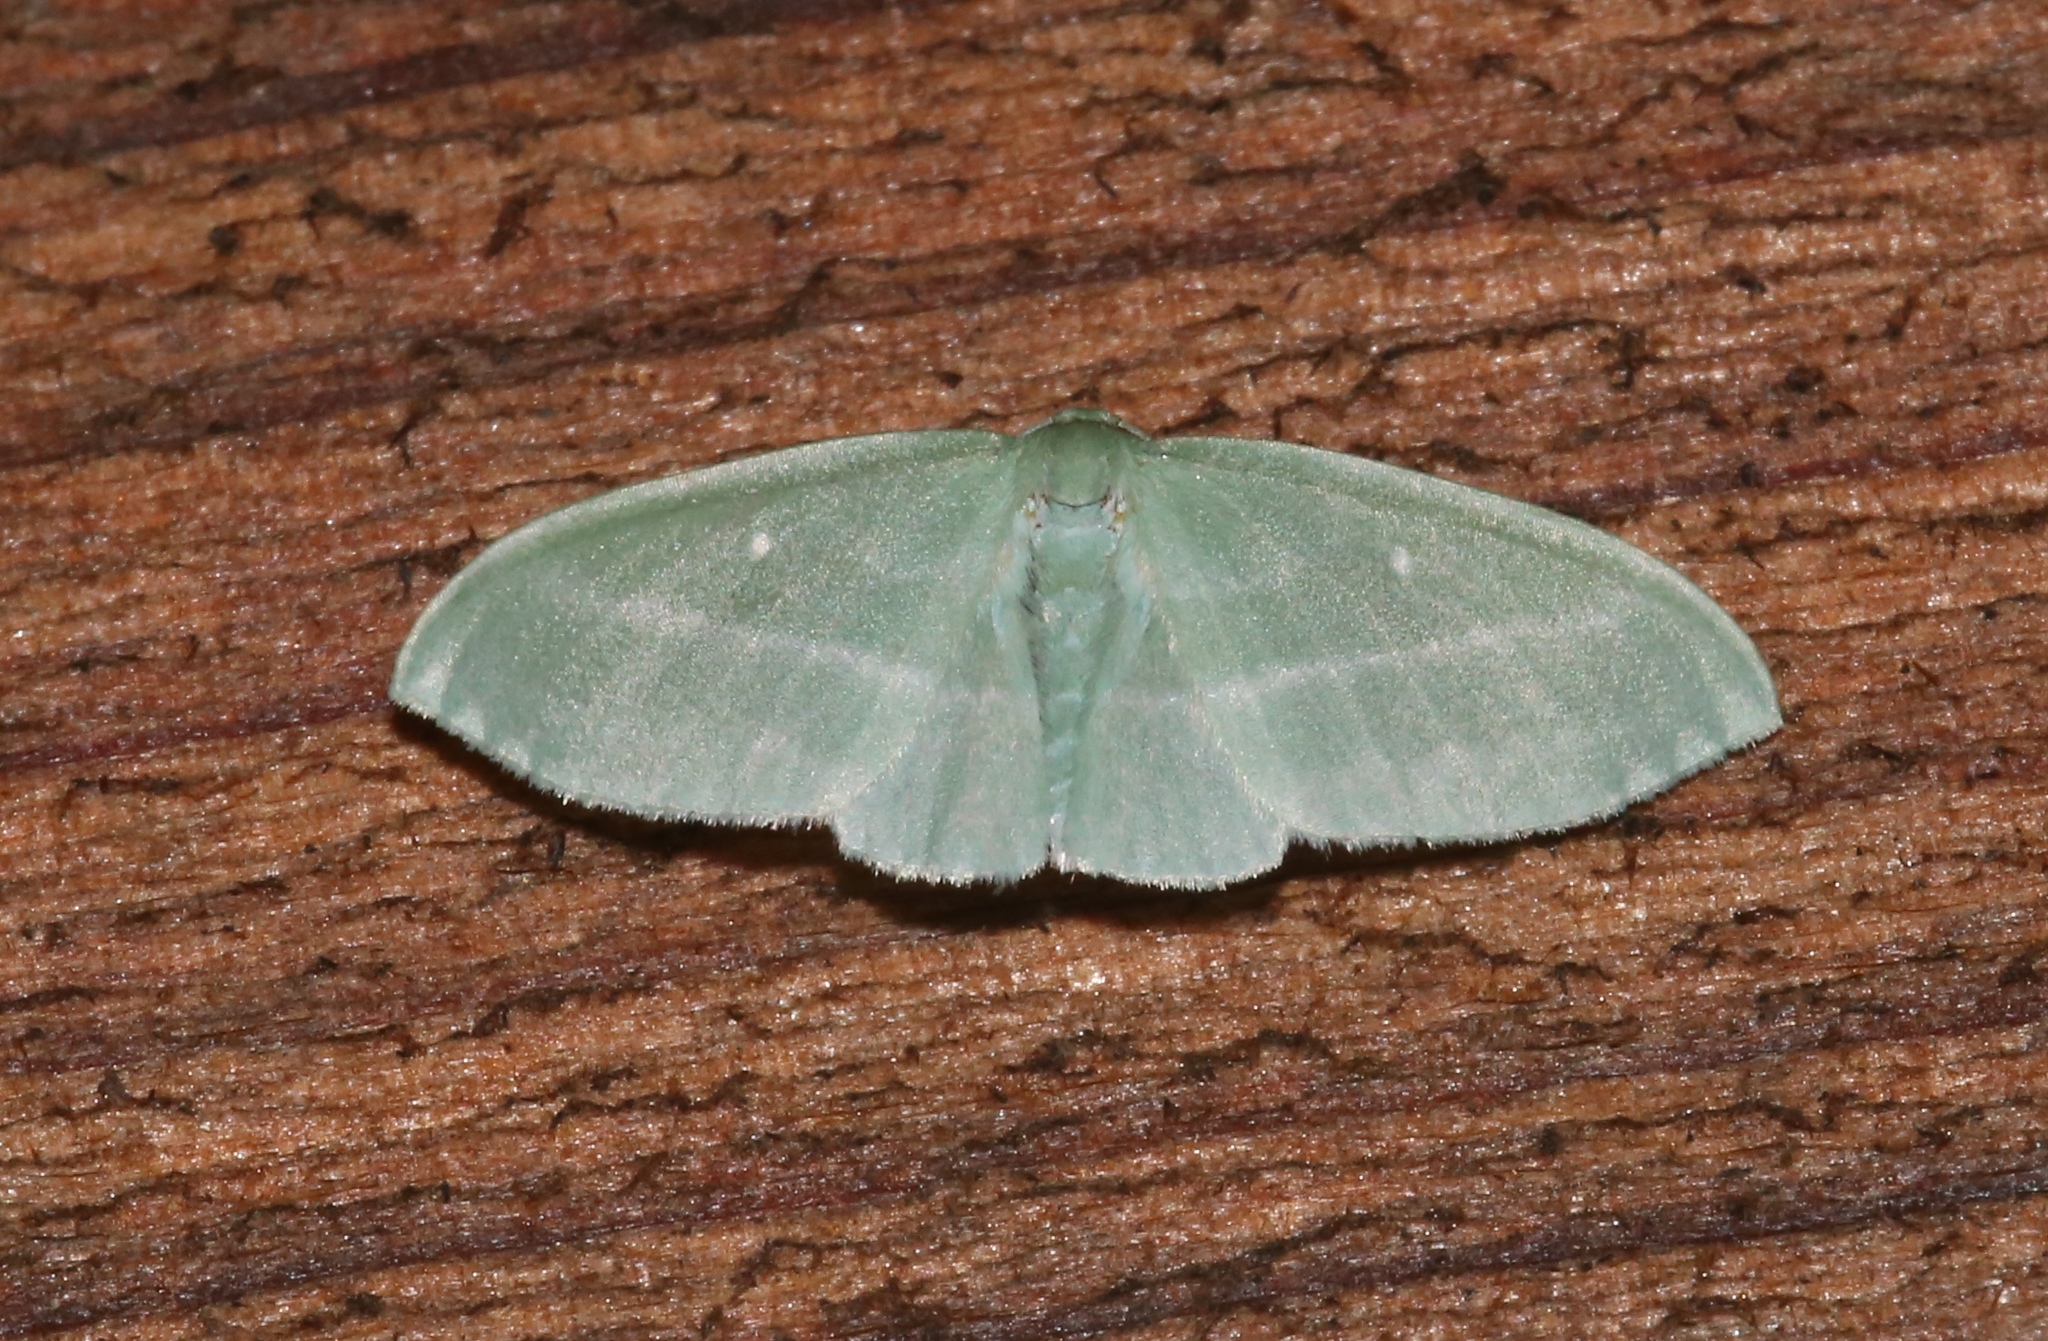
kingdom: Animalia
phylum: Arthropoda
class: Insecta
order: Lepidoptera
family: Geometridae
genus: Dyspteris
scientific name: Dyspteris abortivaria
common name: Bad-wing
